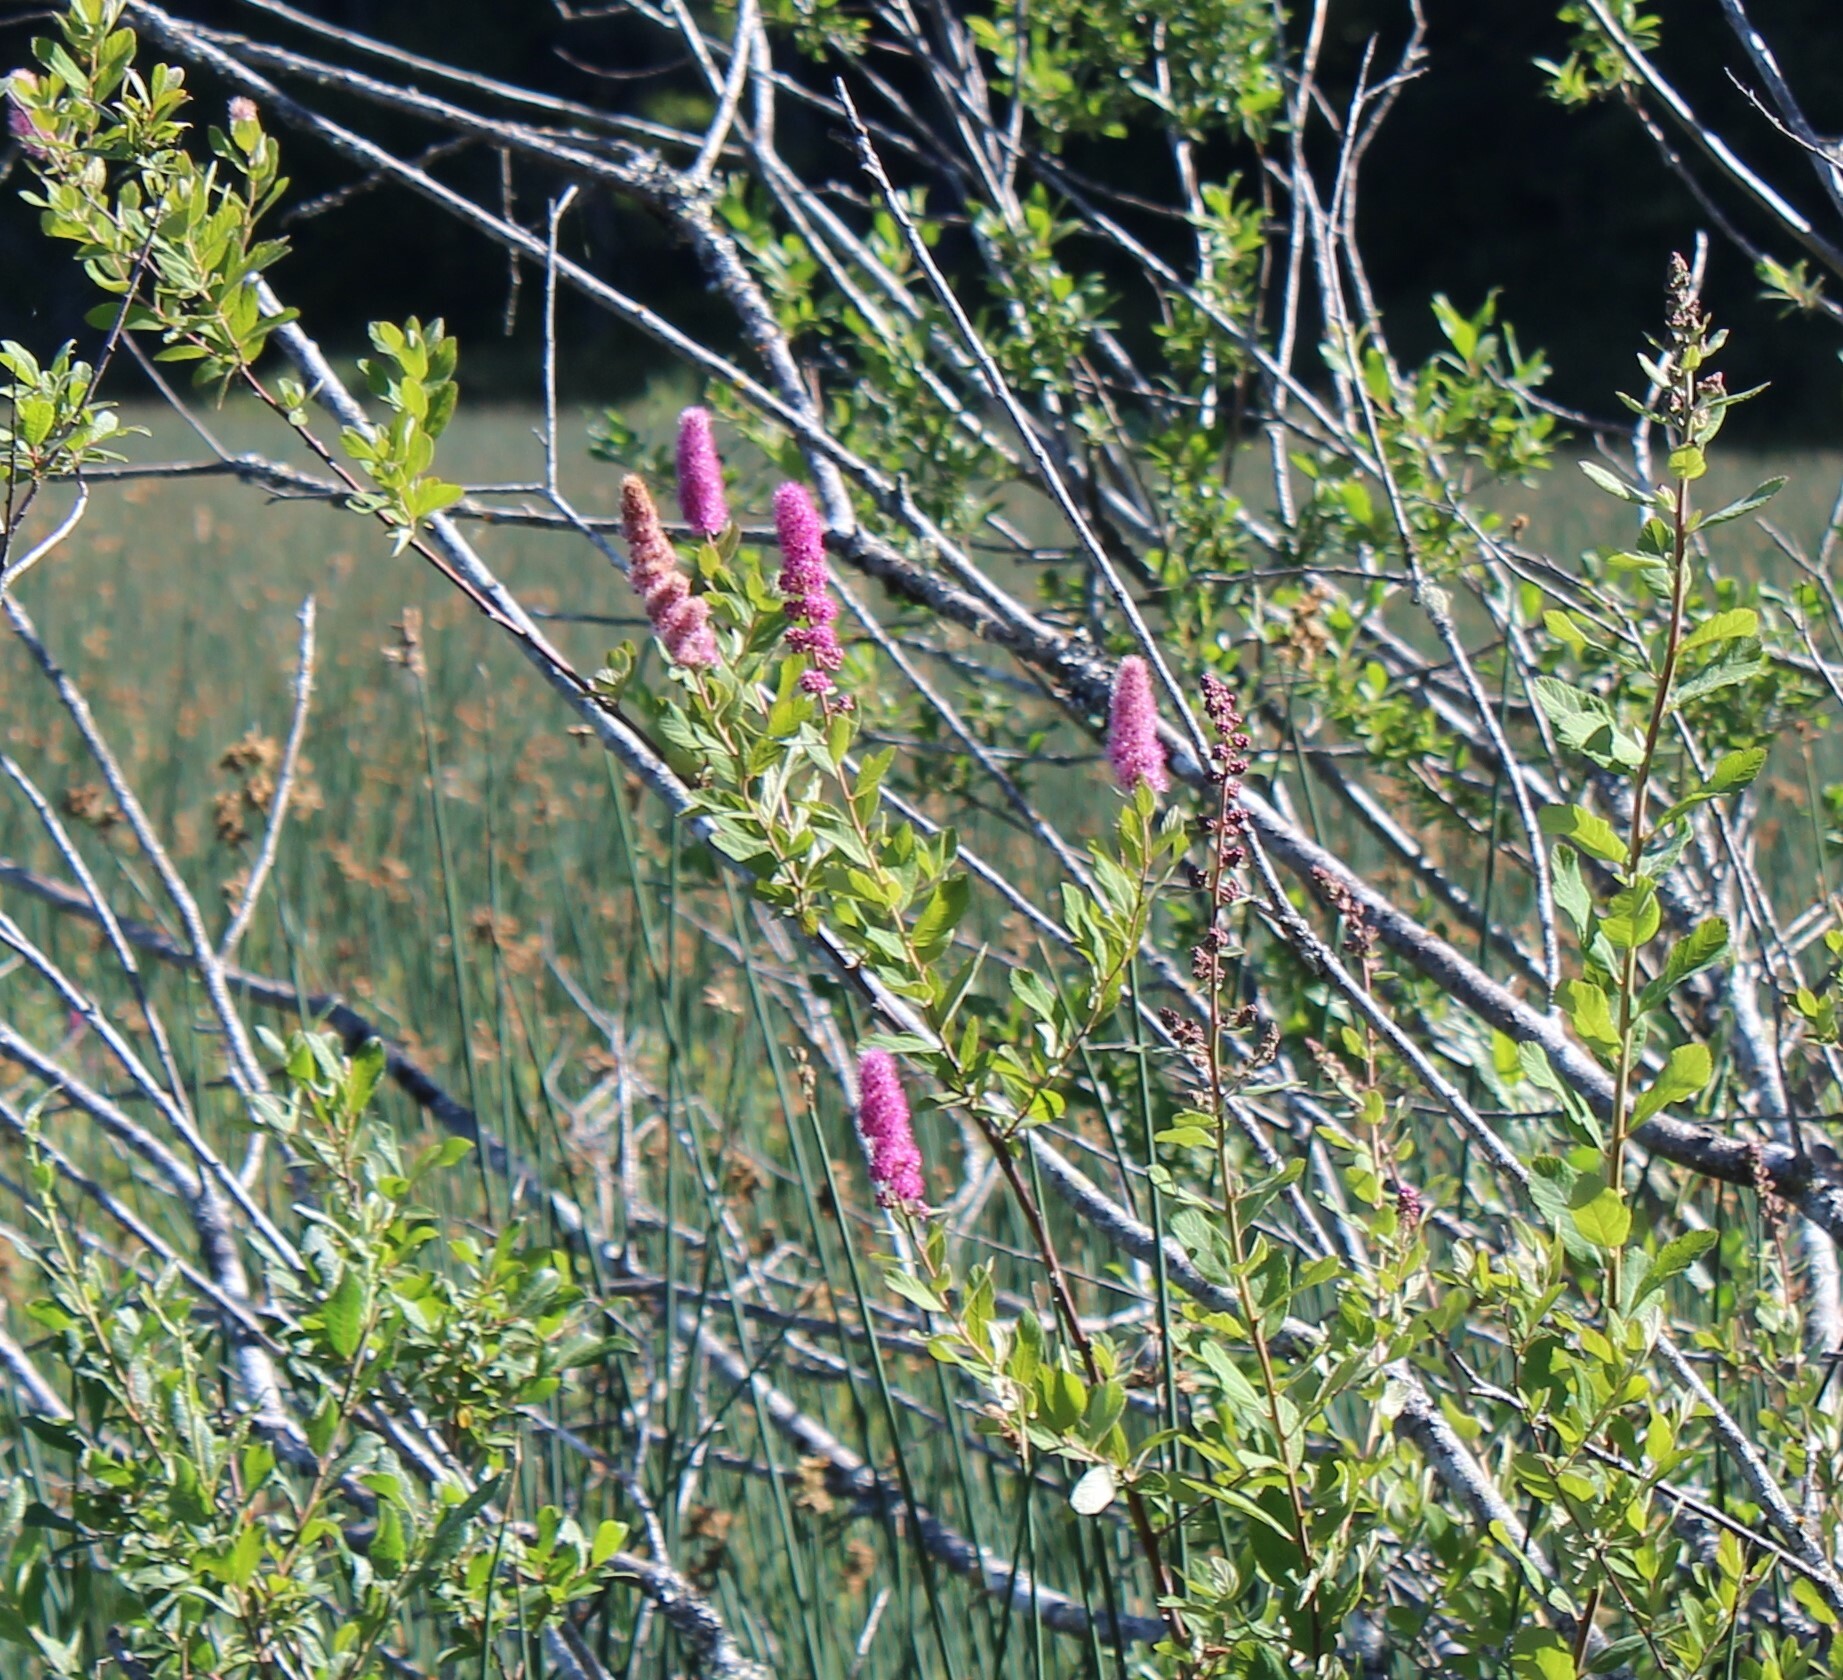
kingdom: Plantae
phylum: Tracheophyta
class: Magnoliopsida
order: Rosales
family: Rosaceae
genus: Spiraea
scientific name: Spiraea douglasii
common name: Steeplebush
